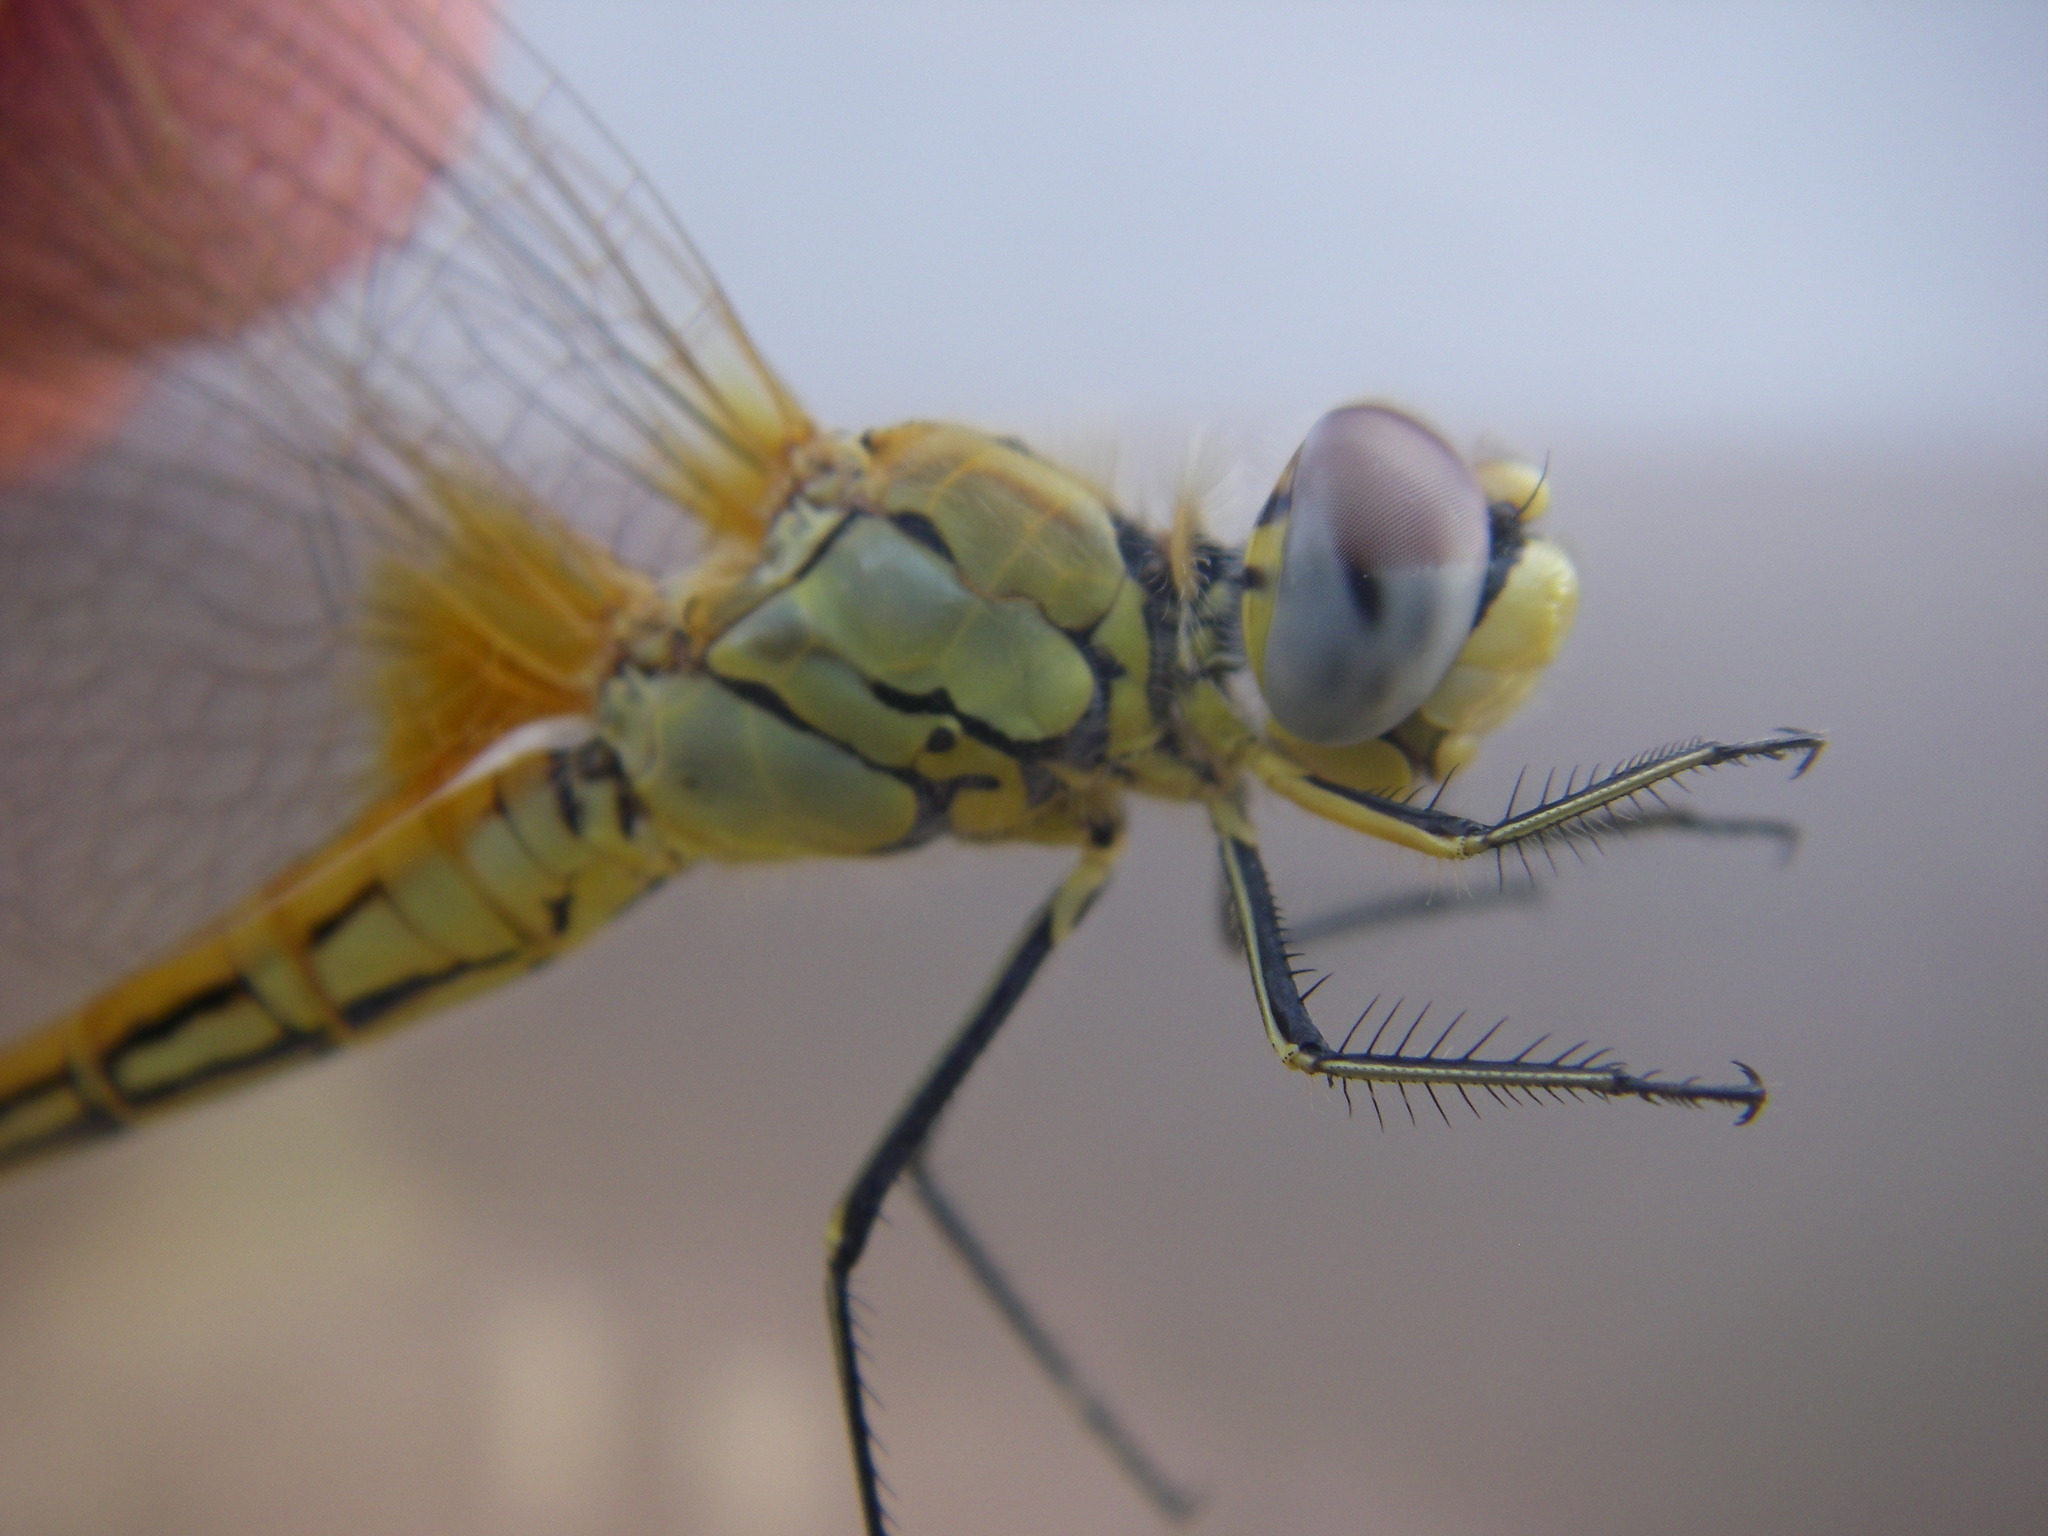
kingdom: Animalia
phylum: Arthropoda
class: Insecta
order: Odonata
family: Libellulidae
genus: Sympetrum
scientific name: Sympetrum fonscolombii
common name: Red-veined darter
